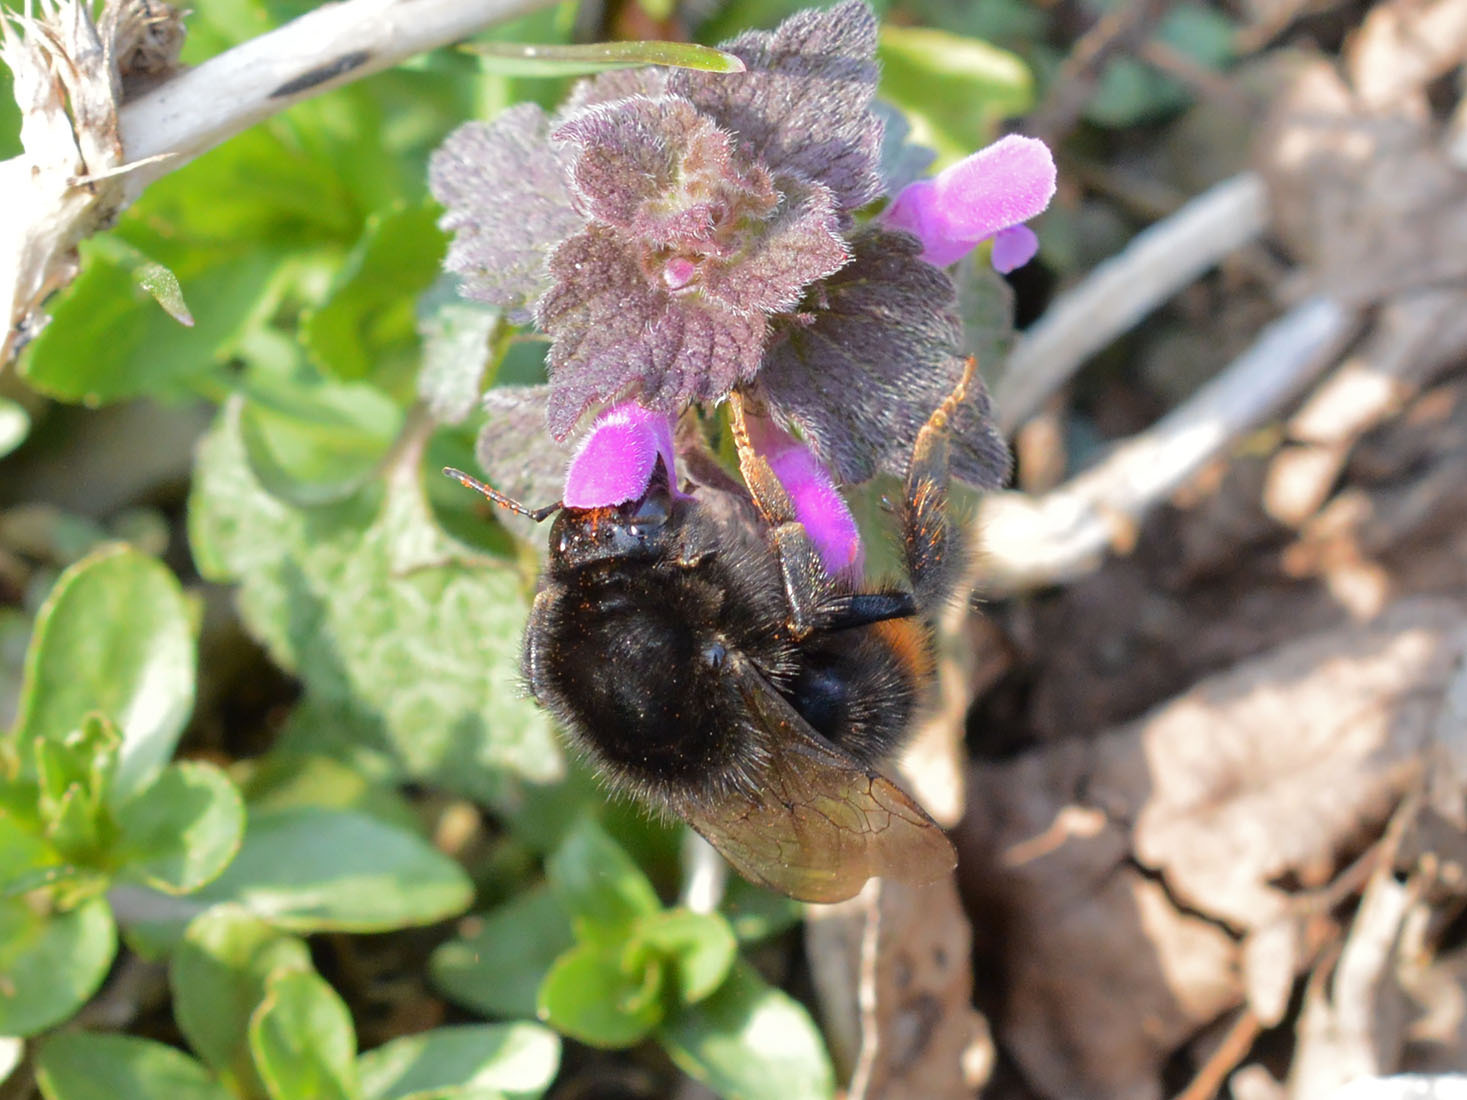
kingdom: Animalia
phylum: Arthropoda
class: Insecta
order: Hymenoptera
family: Apidae
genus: Bombus
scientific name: Bombus ruderarius
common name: Red-shanked carder-bee
